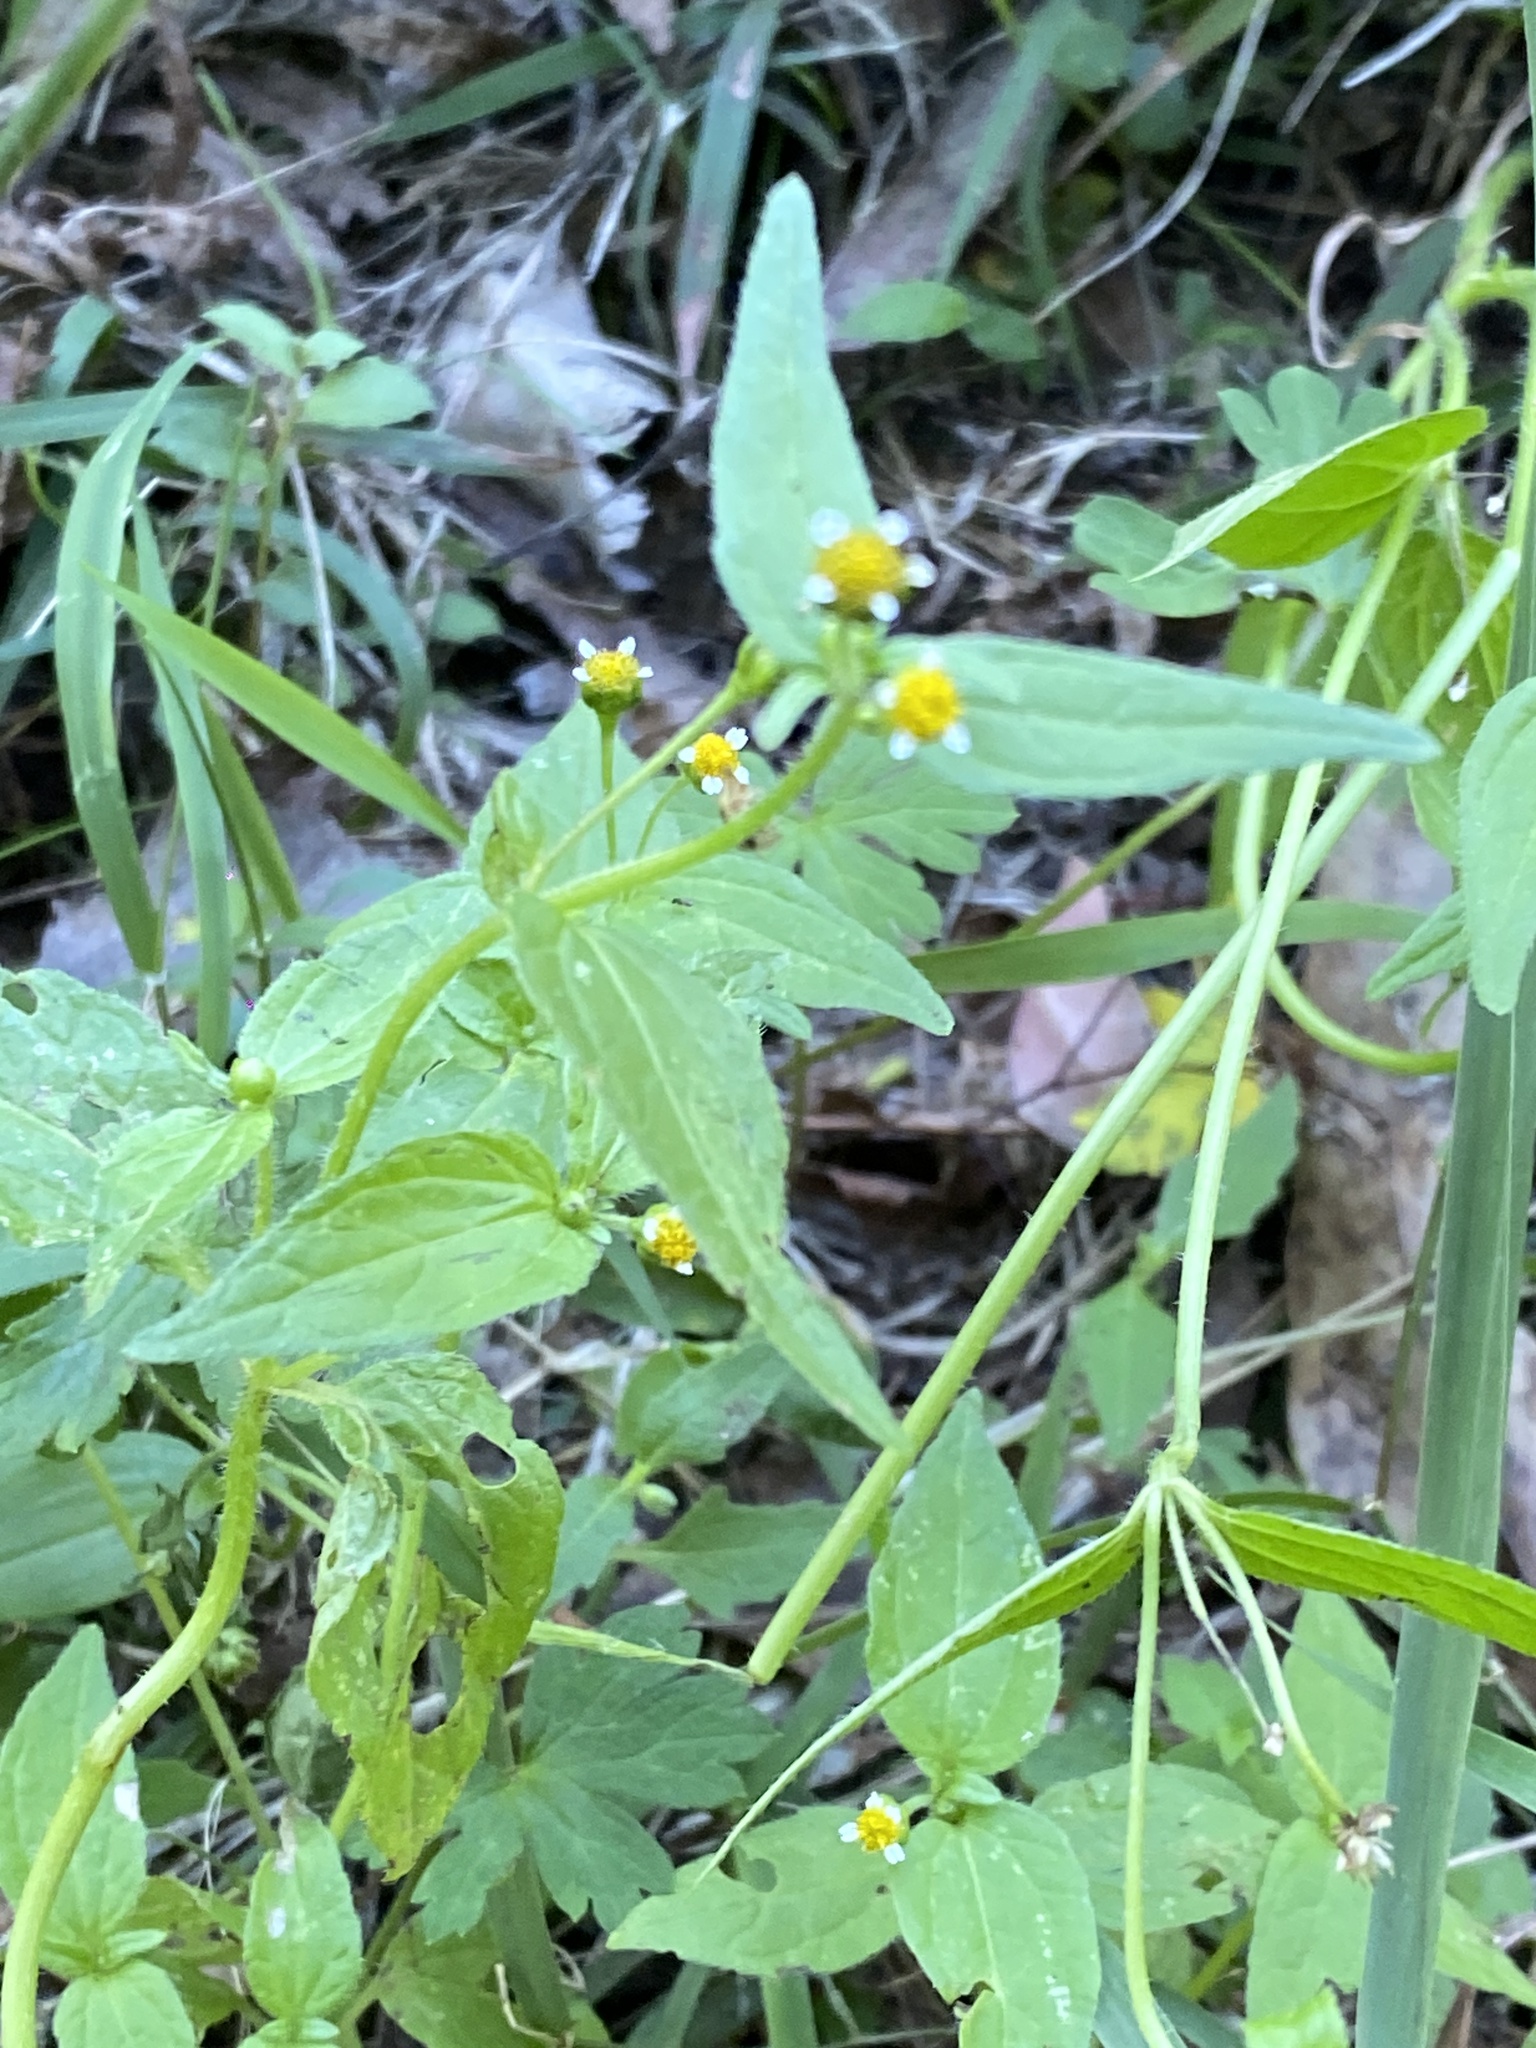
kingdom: Plantae
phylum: Tracheophyta
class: Magnoliopsida
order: Asterales
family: Asteraceae
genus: Galinsoga
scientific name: Galinsoga parviflora
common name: Gallant soldier
